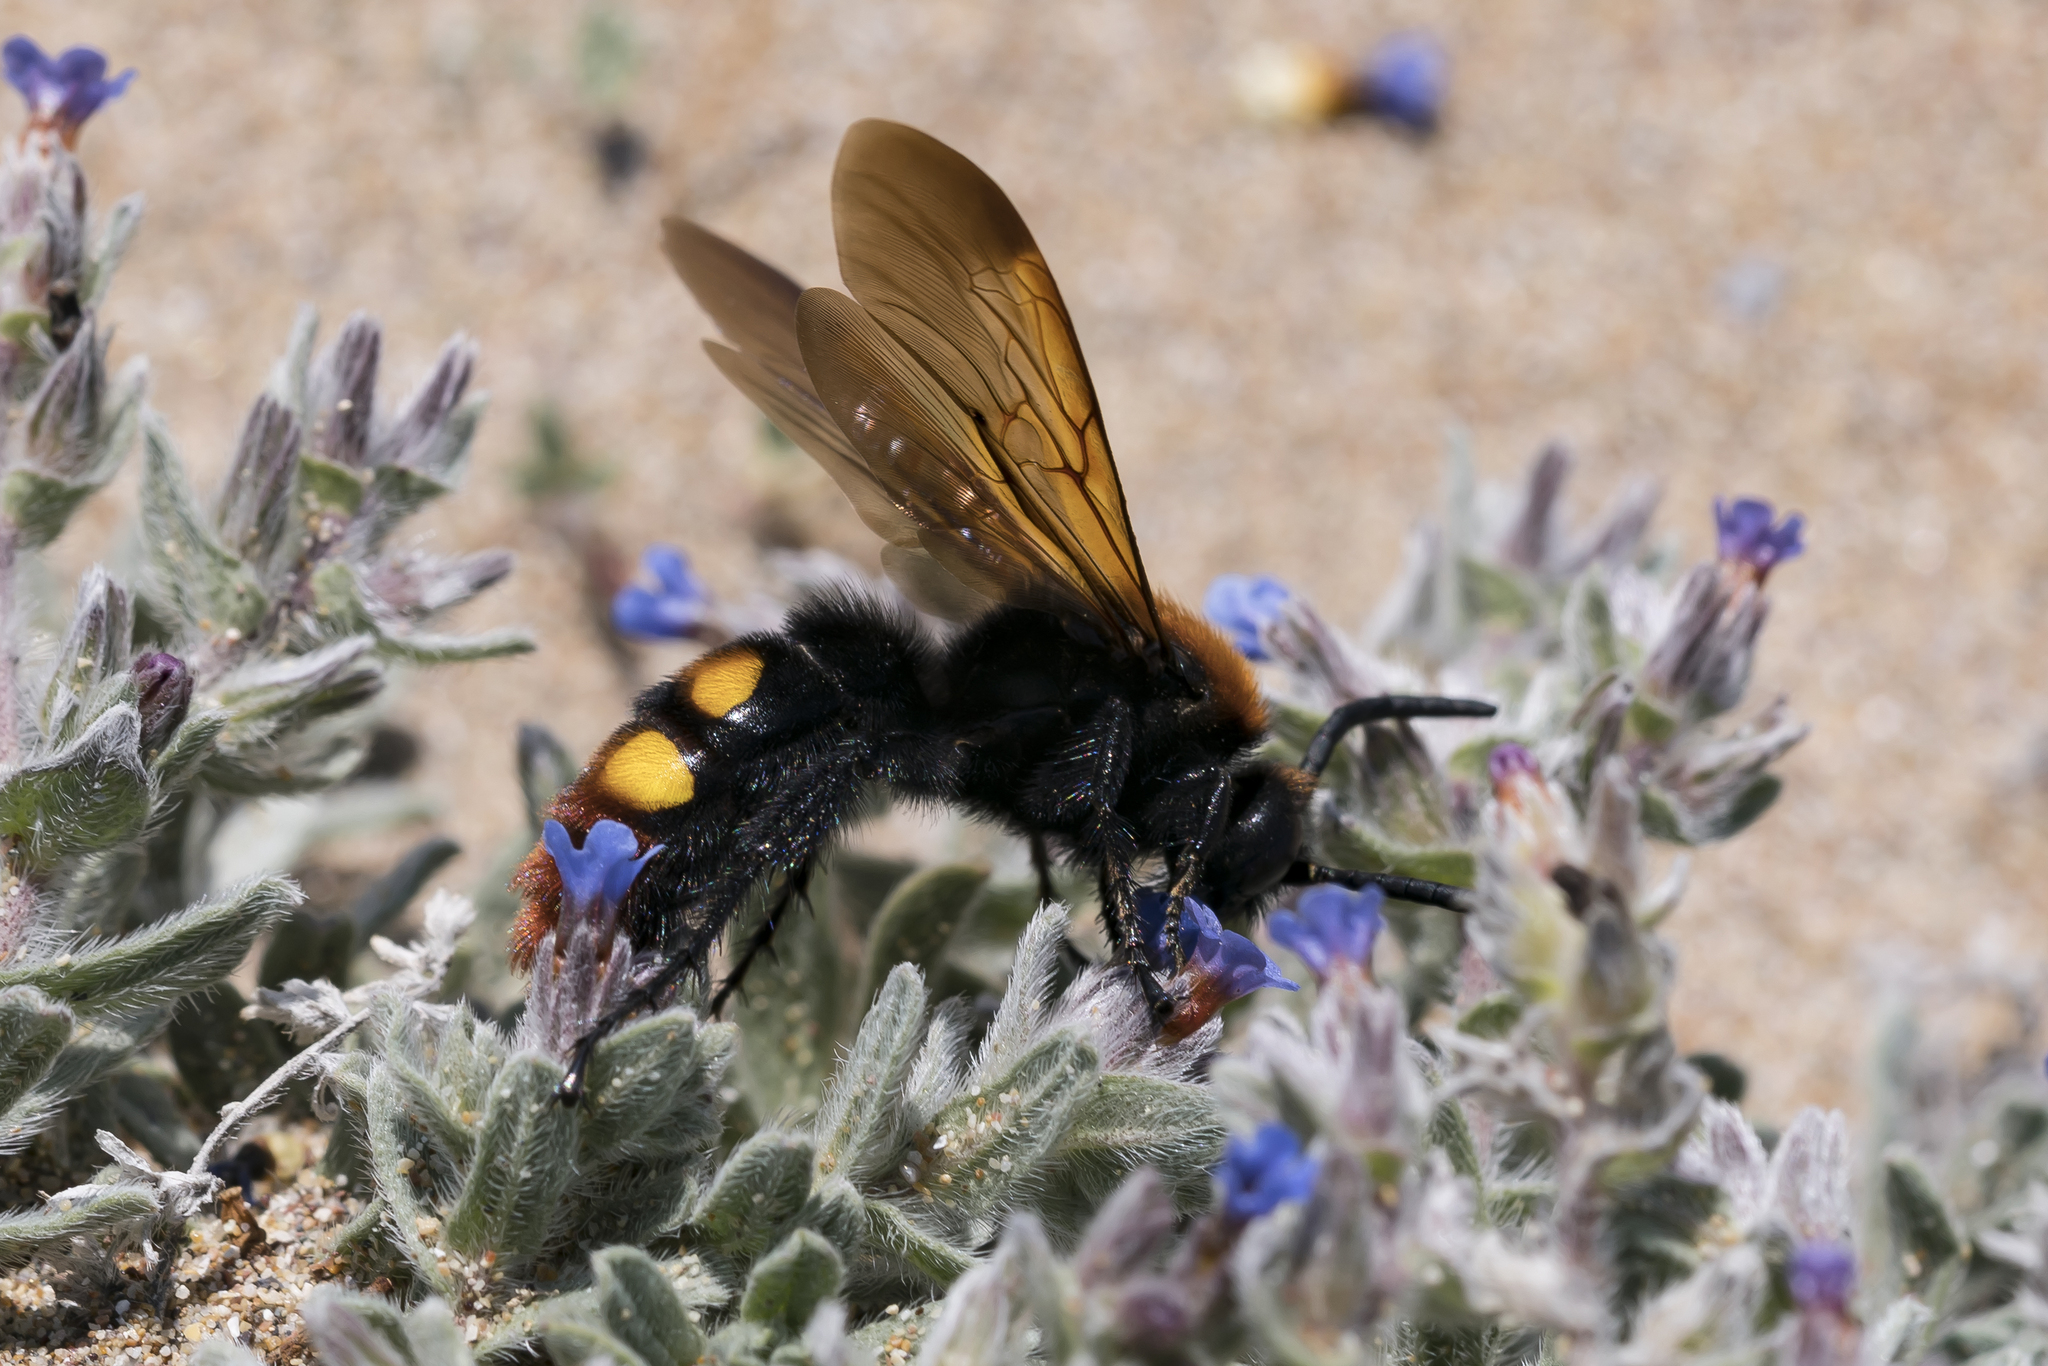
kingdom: Animalia
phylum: Arthropoda
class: Insecta
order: Hymenoptera
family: Scoliidae
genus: Megascolia
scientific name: Megascolia maculata
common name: Mammoth wasp
